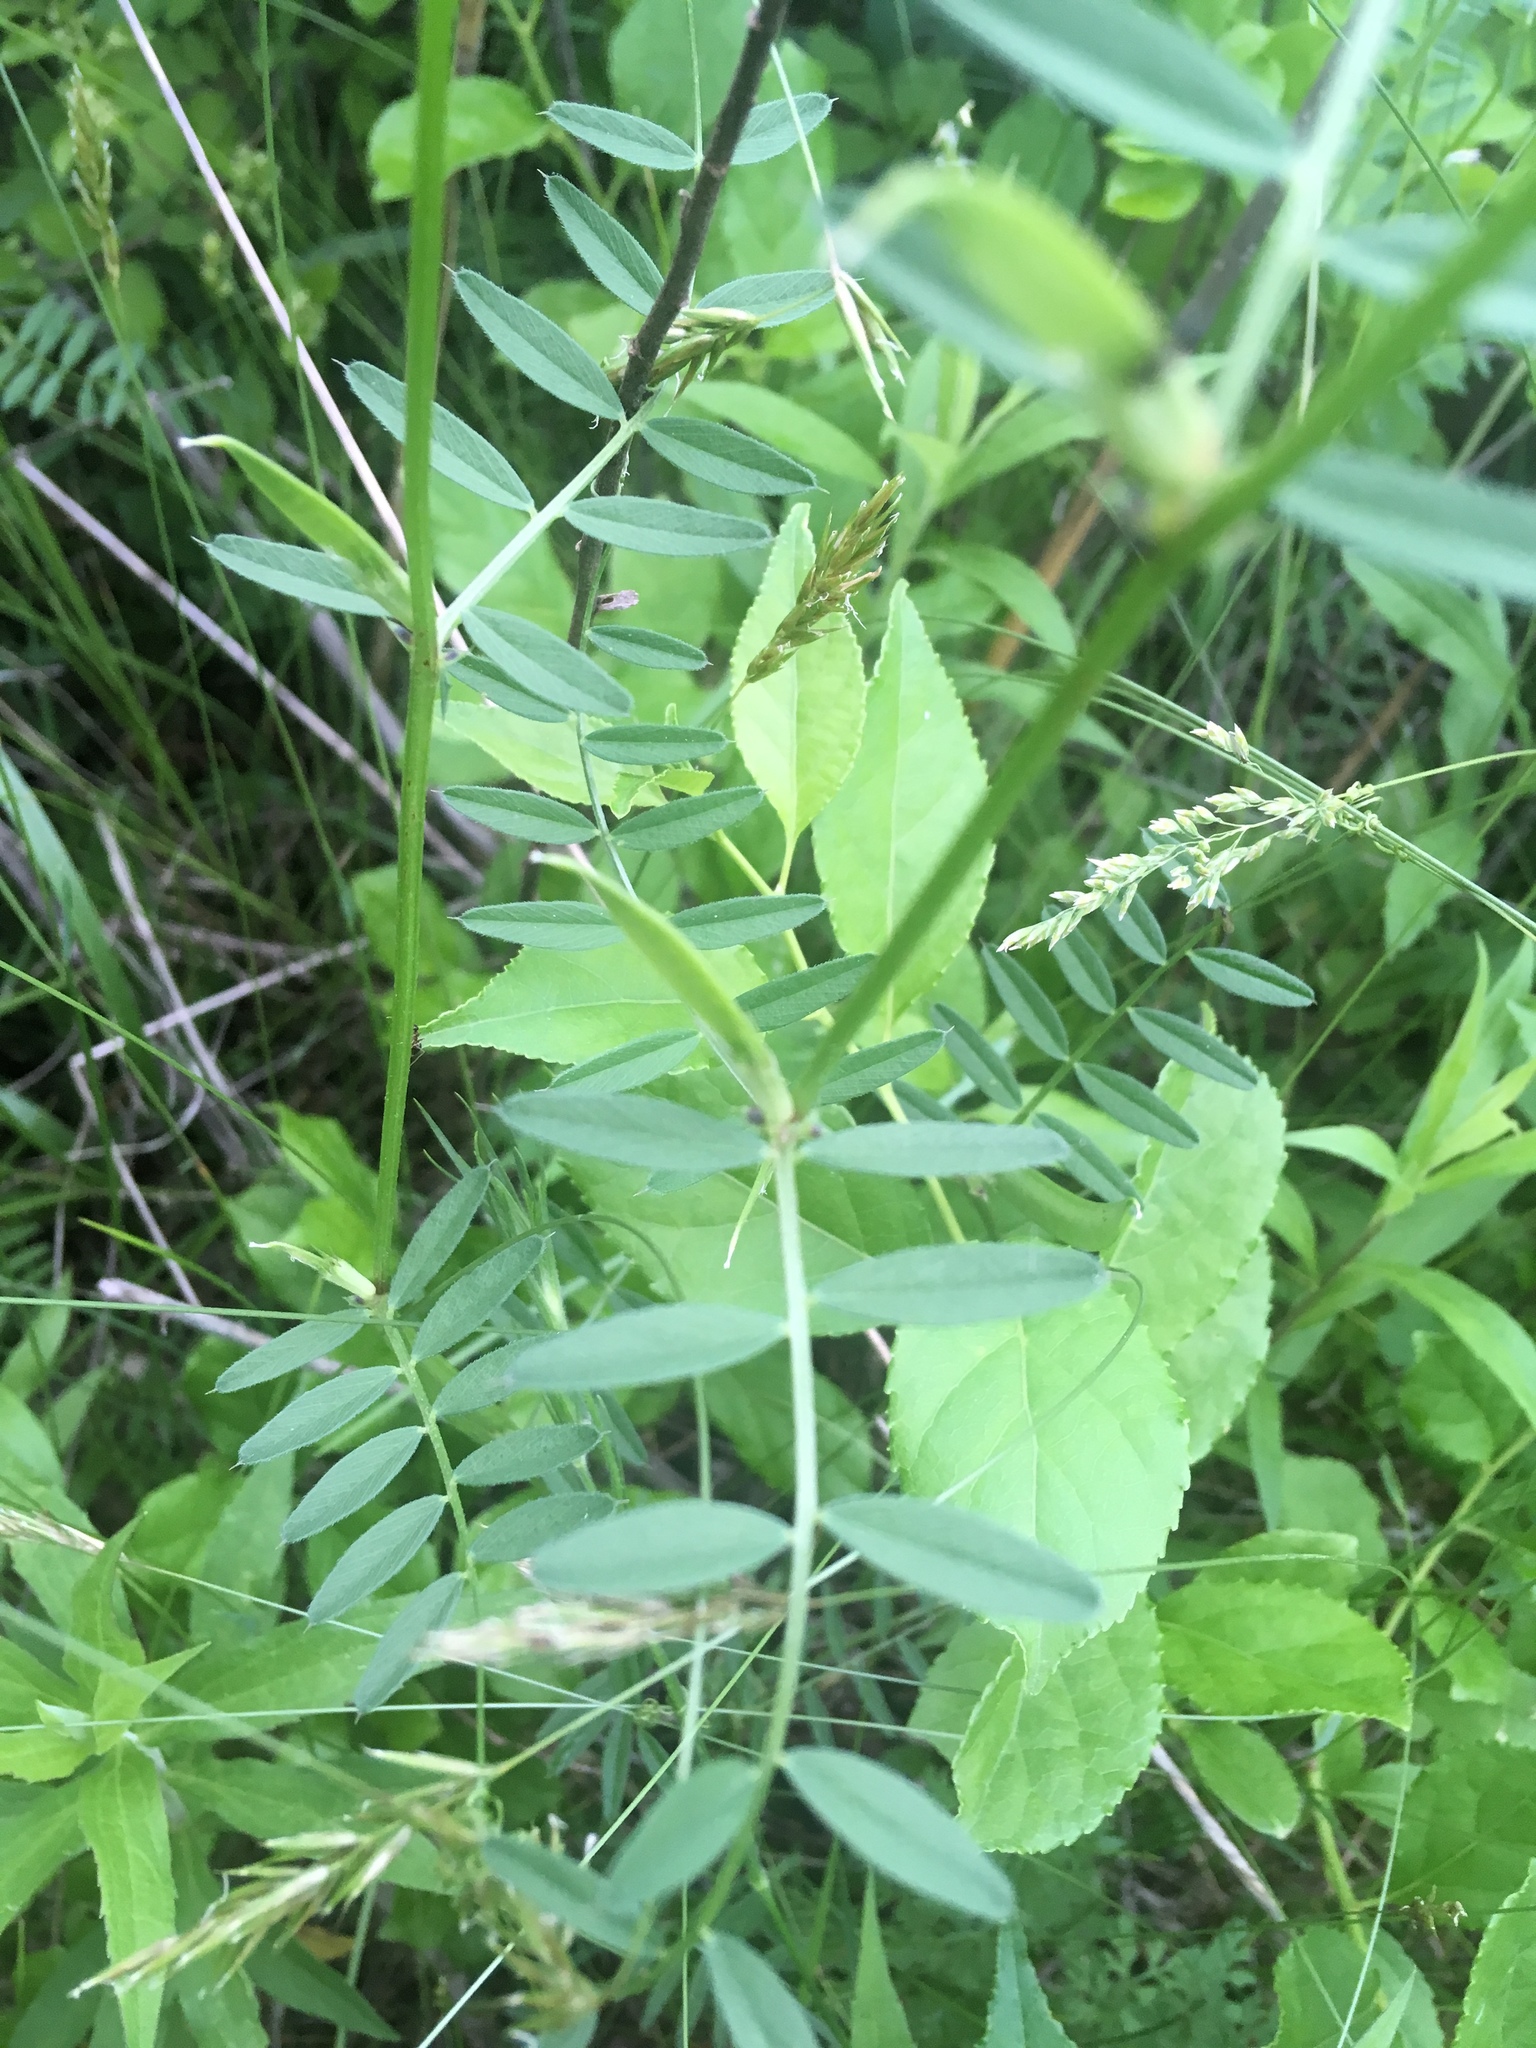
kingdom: Plantae
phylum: Tracheophyta
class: Magnoliopsida
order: Fabales
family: Fabaceae
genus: Vicia
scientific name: Vicia sativa
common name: Garden vetch
